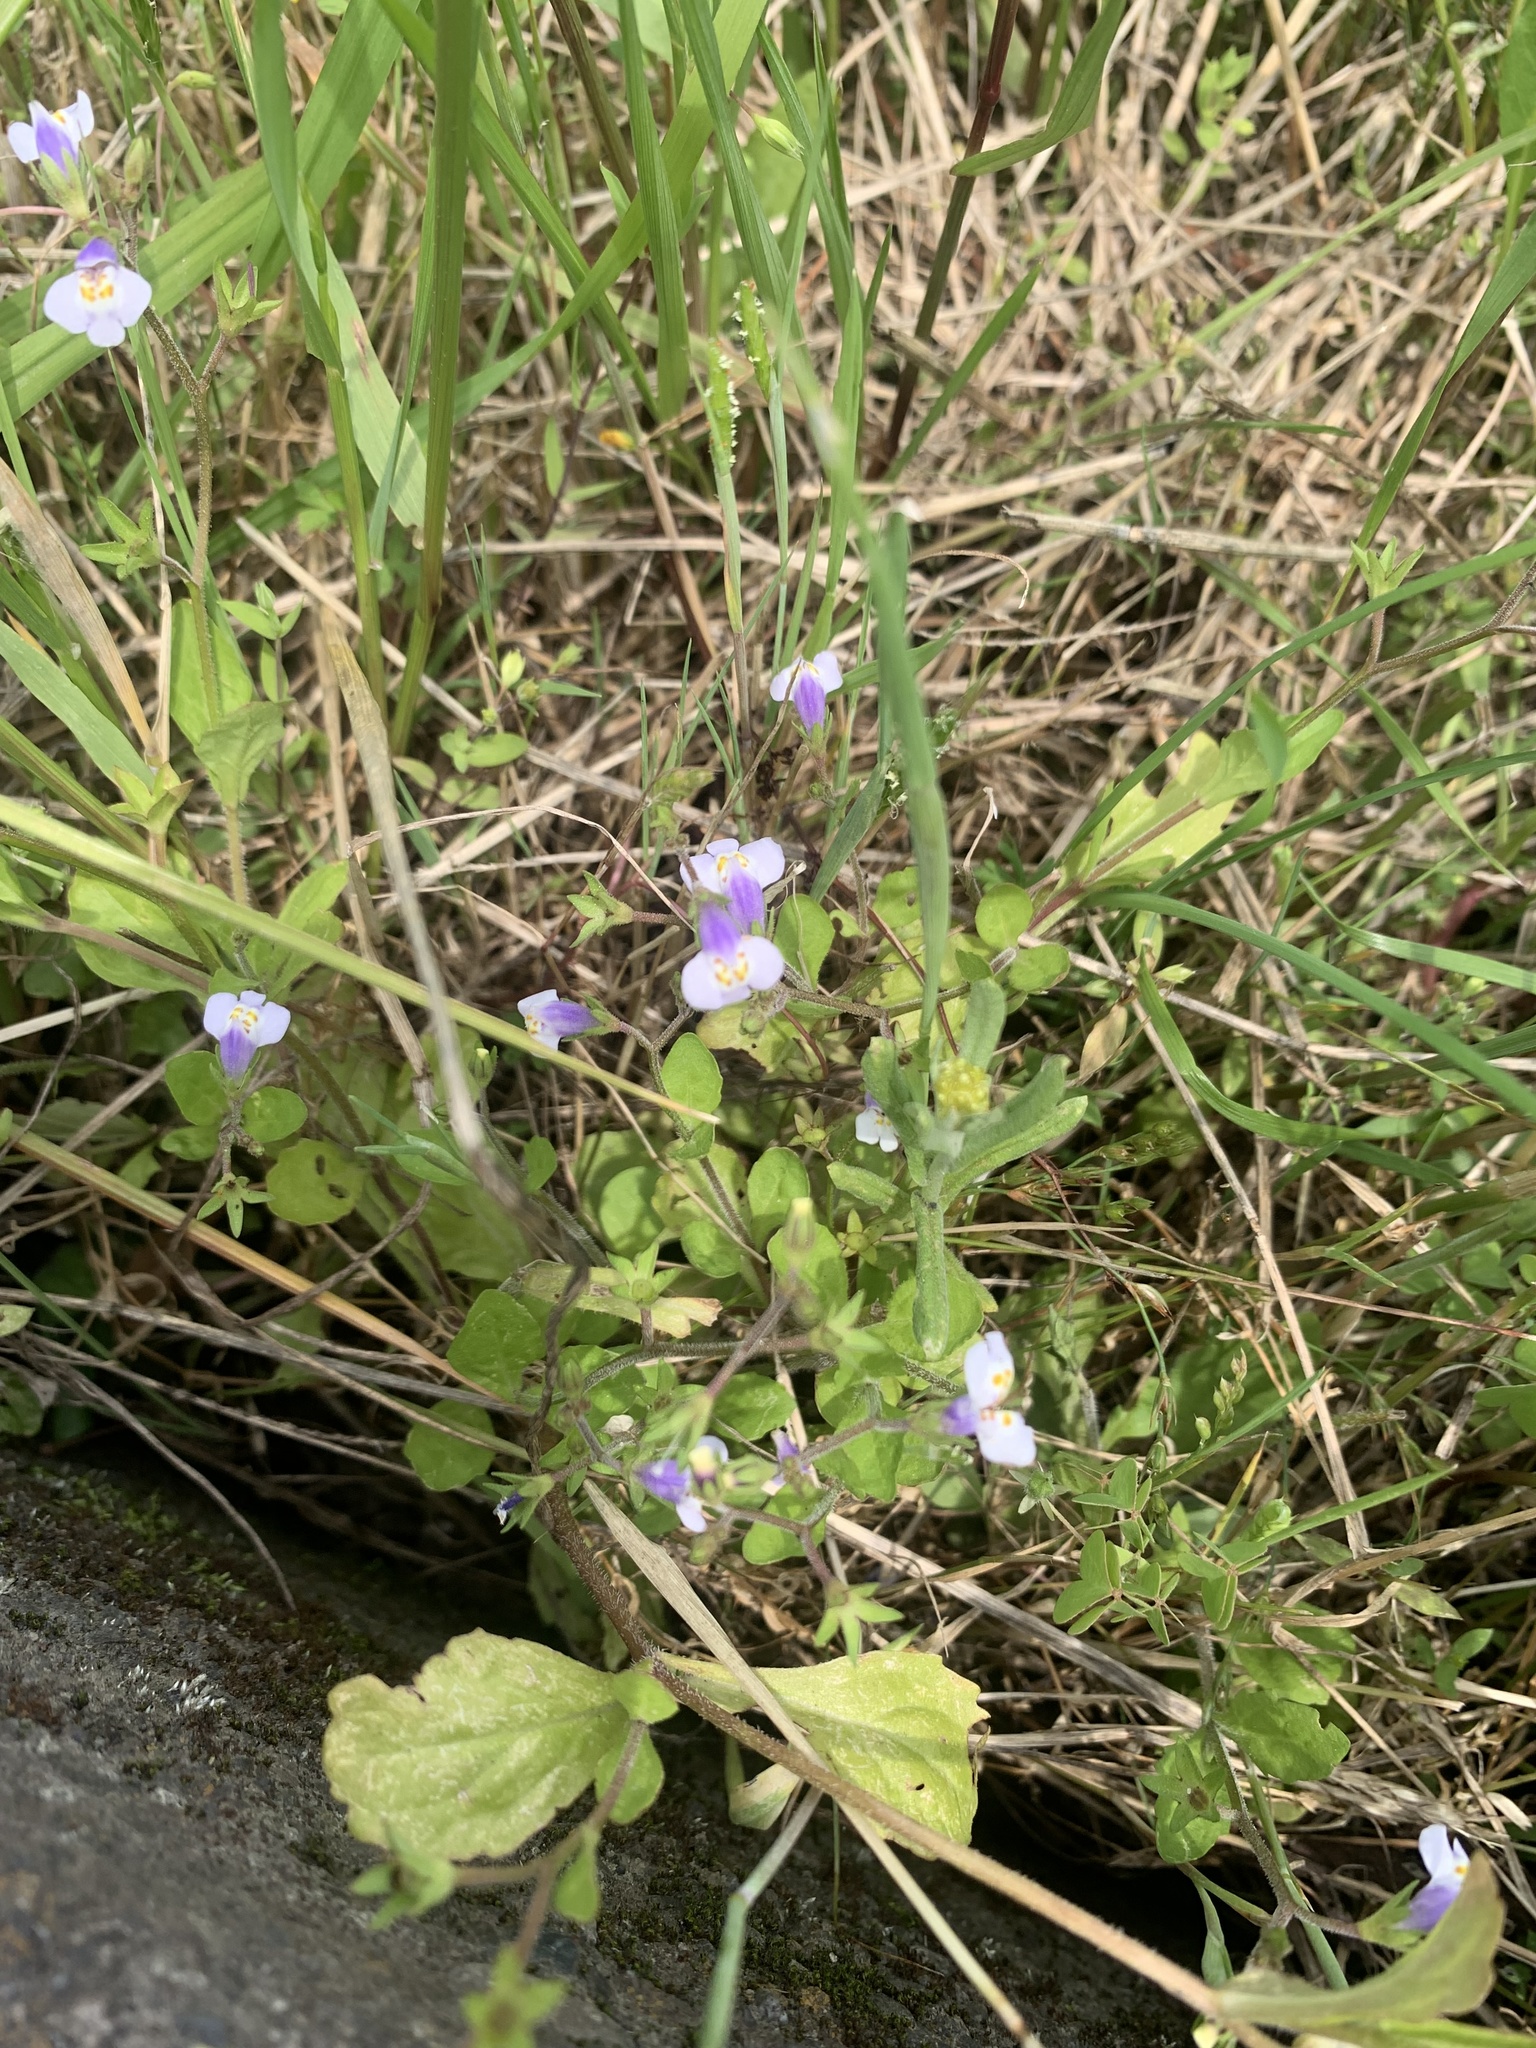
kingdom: Plantae
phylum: Tracheophyta
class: Magnoliopsida
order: Lamiales
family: Mazaceae
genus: Mazus
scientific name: Mazus pumilus
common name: Japanese mazus
